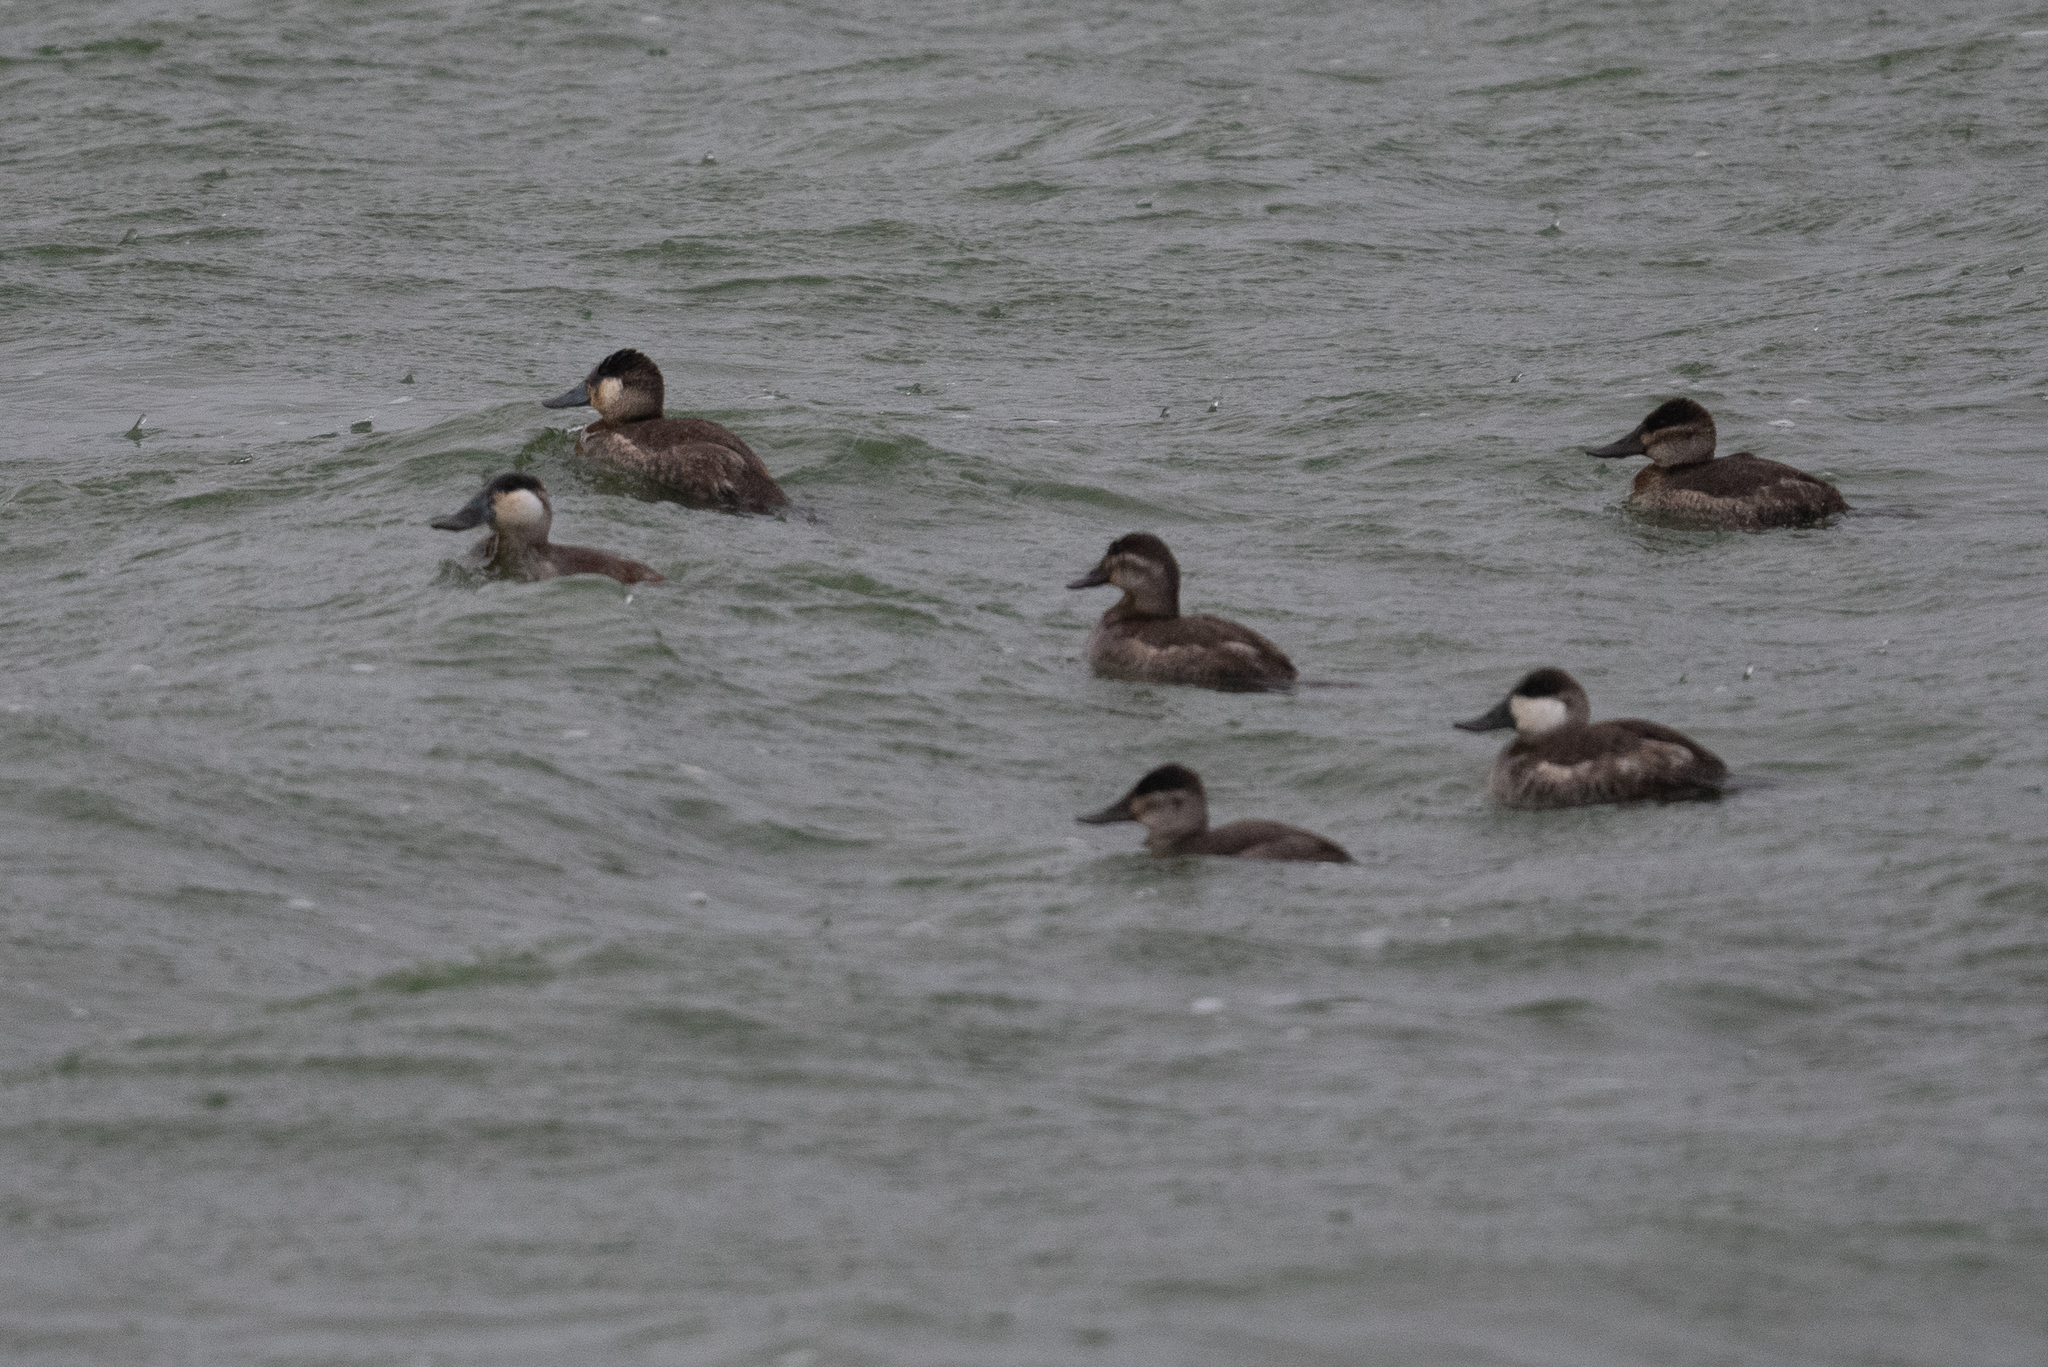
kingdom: Animalia
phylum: Chordata
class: Aves
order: Anseriformes
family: Anatidae
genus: Oxyura
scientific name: Oxyura jamaicensis
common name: Ruddy duck
